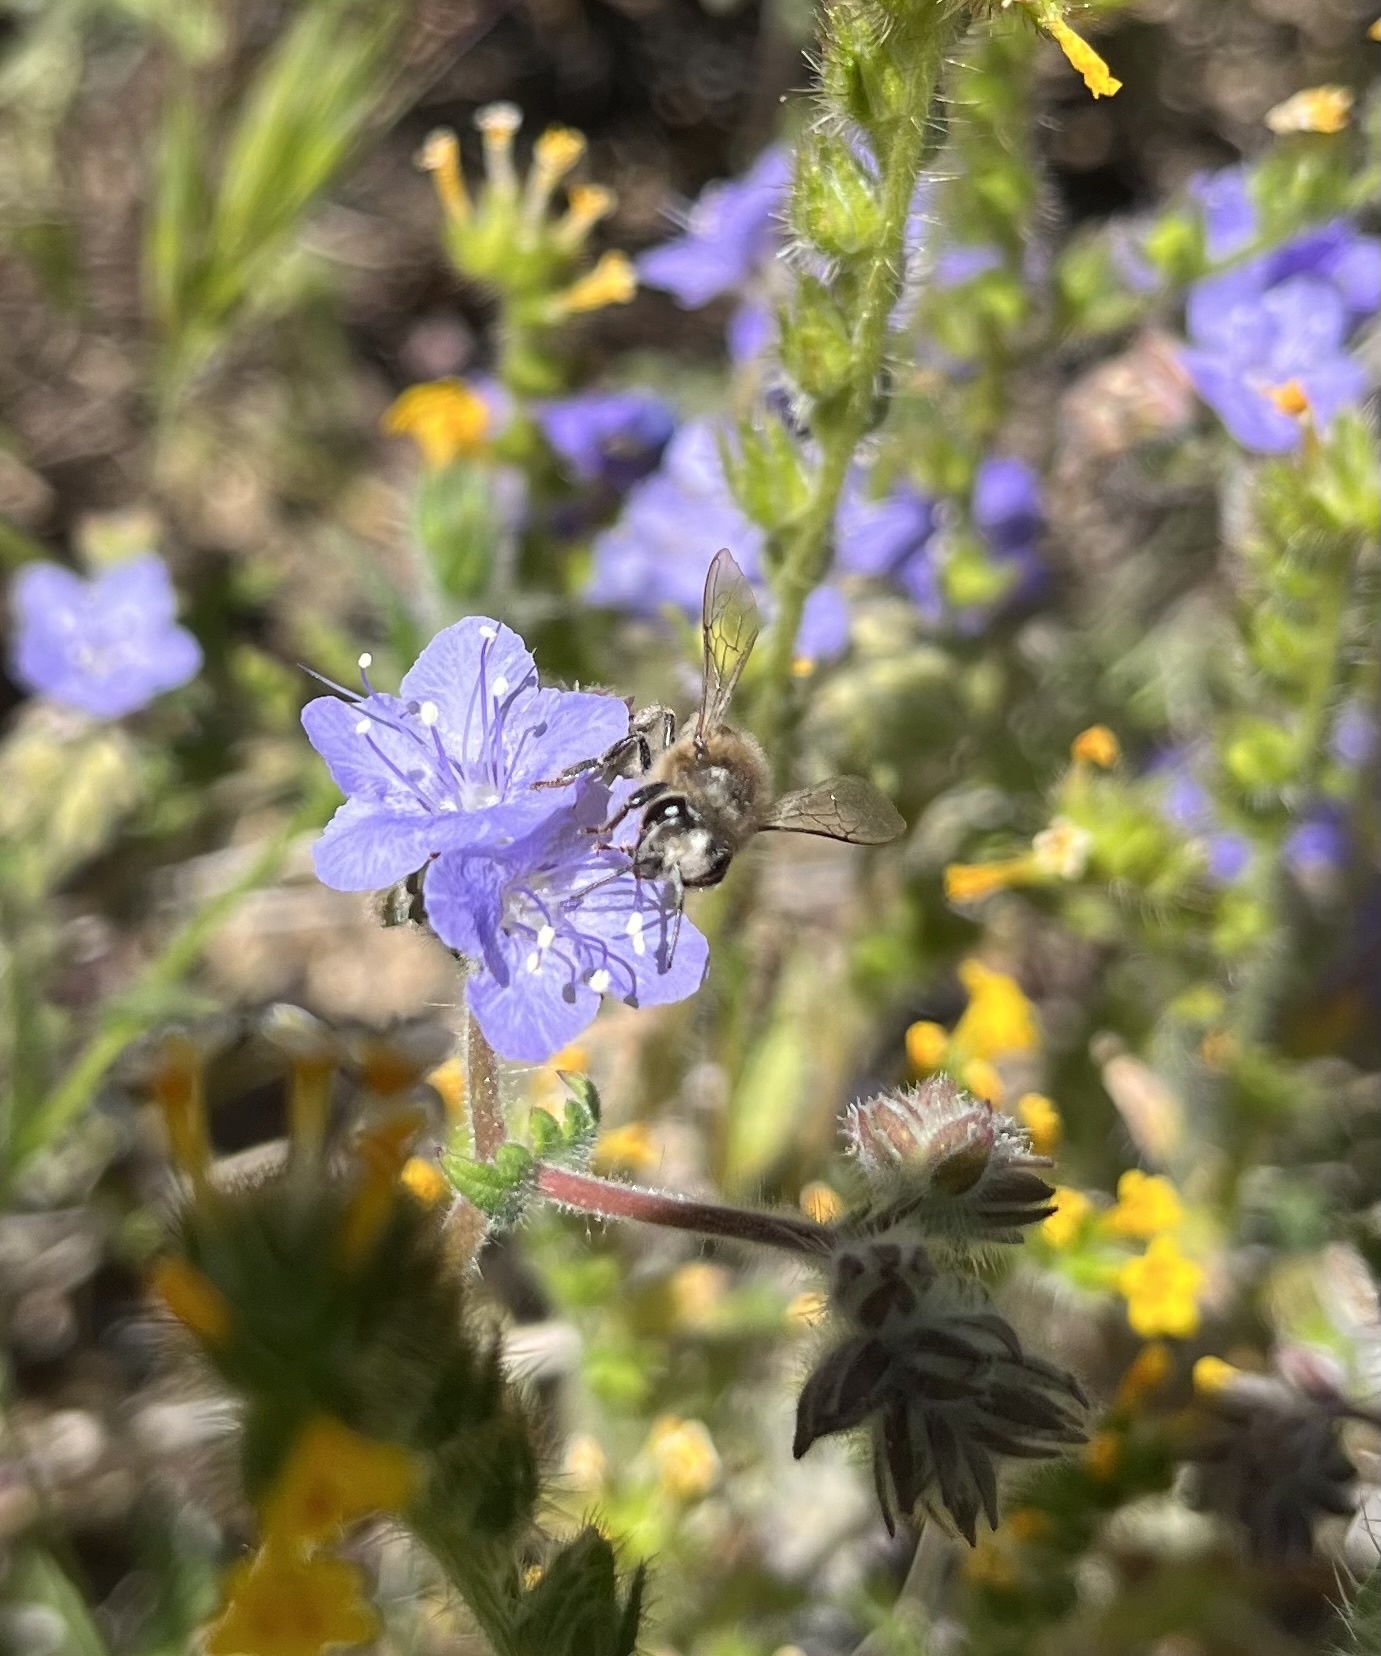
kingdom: Animalia
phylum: Arthropoda
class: Insecta
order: Hymenoptera
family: Apidae
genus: Apis
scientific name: Apis mellifera
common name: Honey bee
